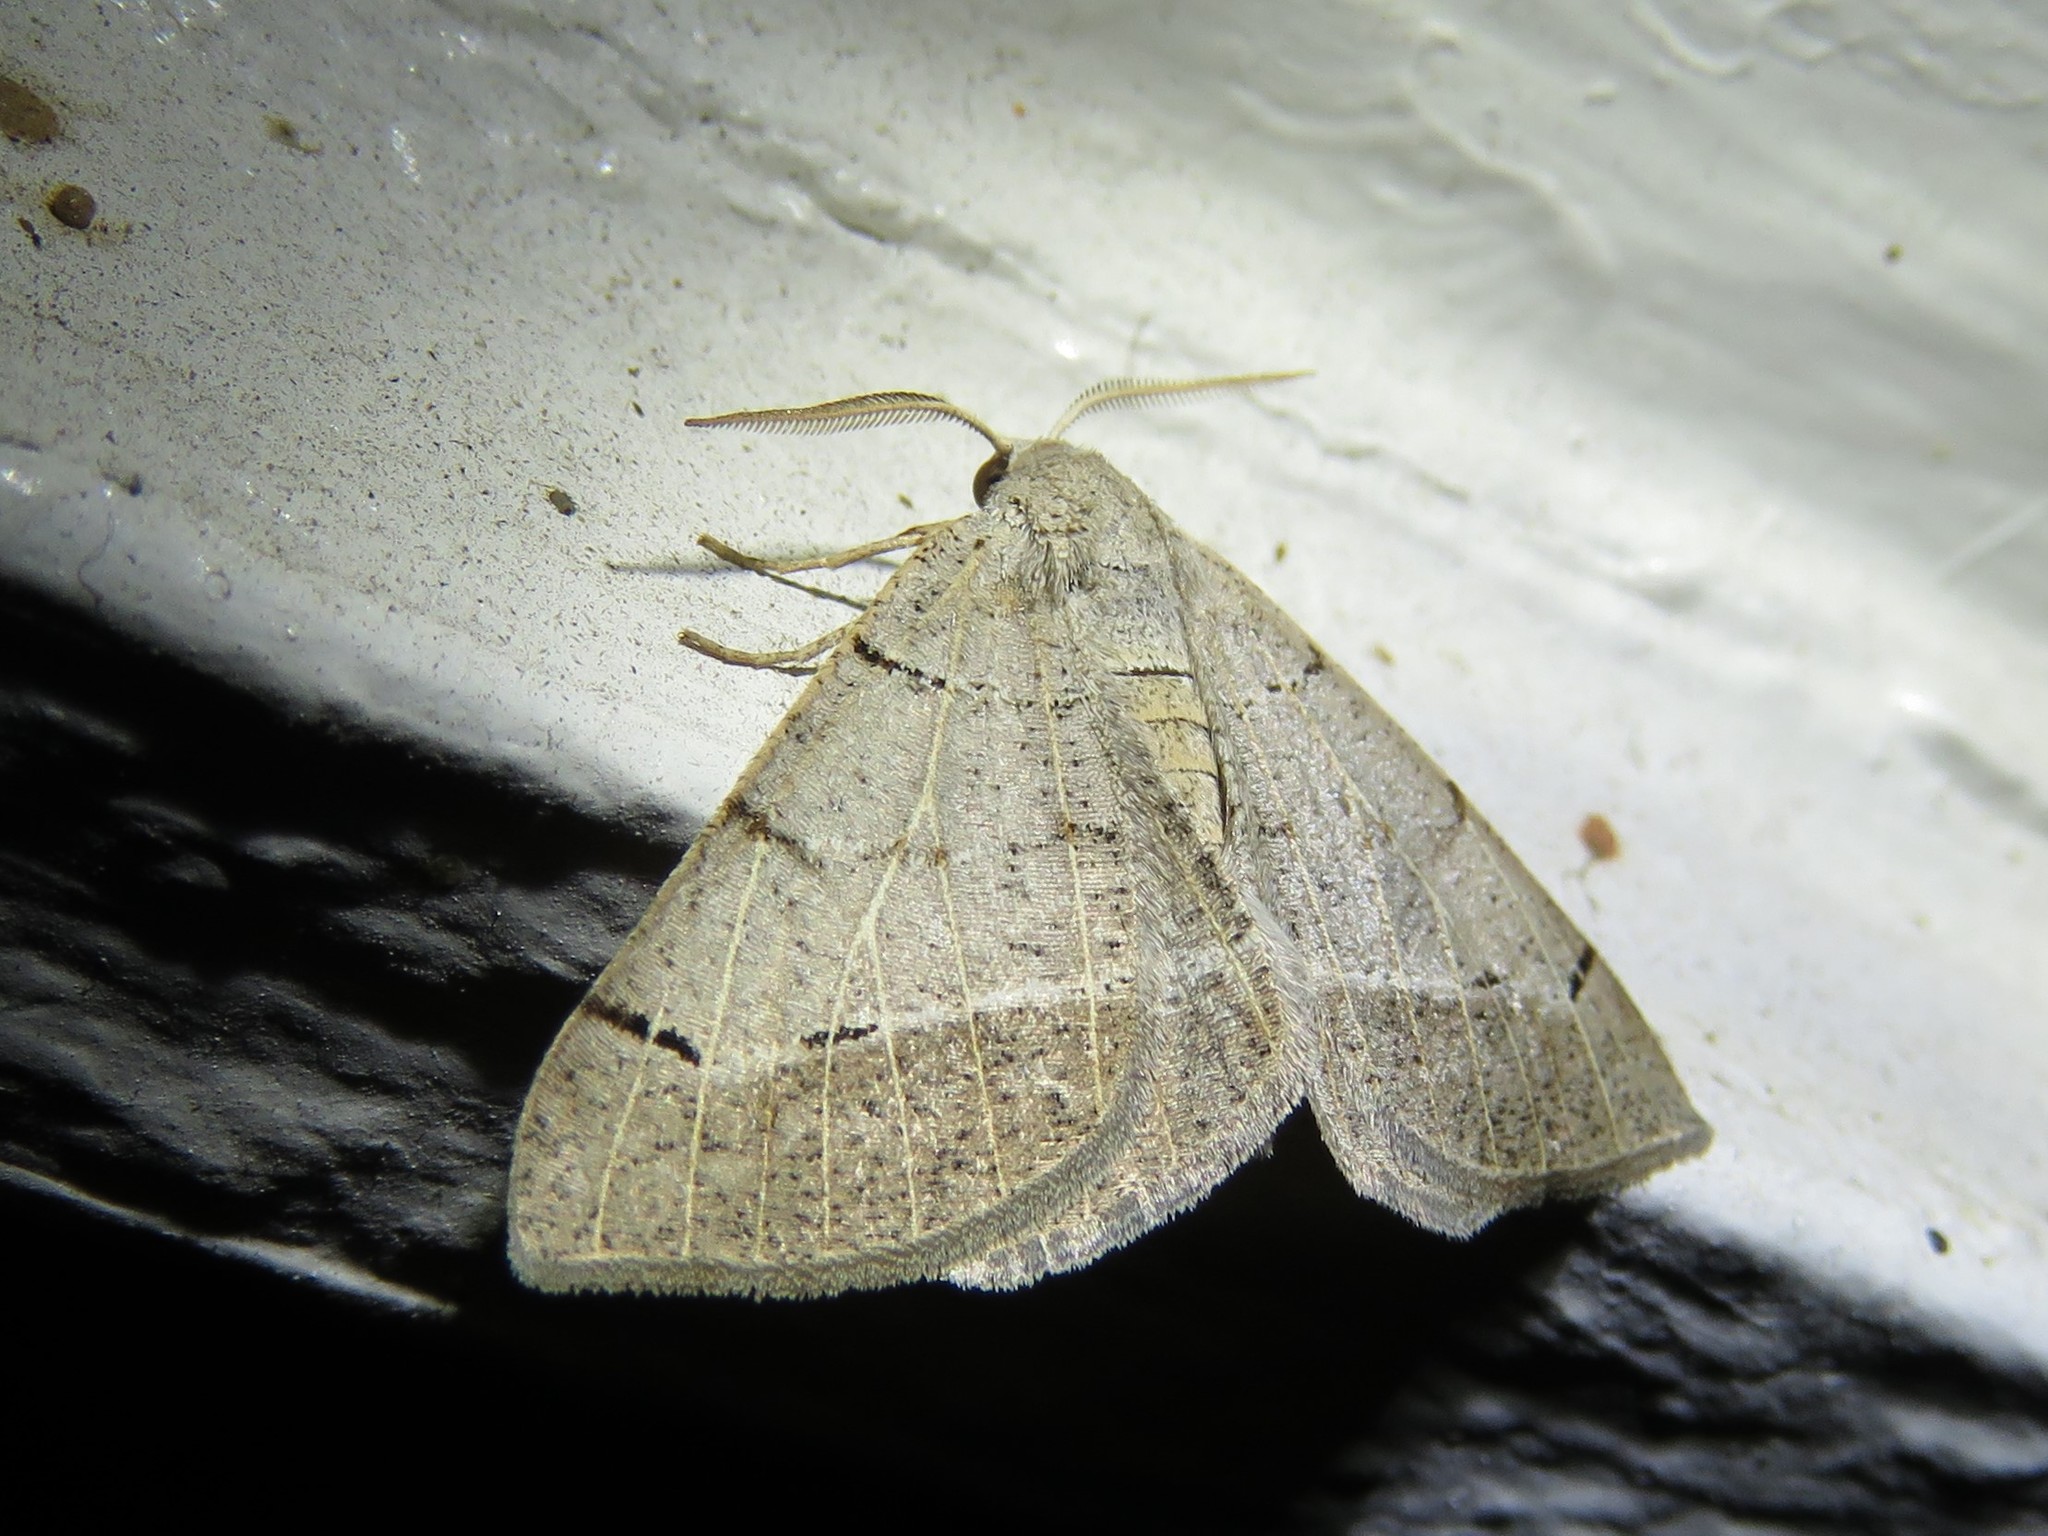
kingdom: Animalia
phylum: Arthropoda
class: Insecta
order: Lepidoptera
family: Geometridae
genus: Isturgia
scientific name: Isturgia dislocaria
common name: Pale-viened enconista
